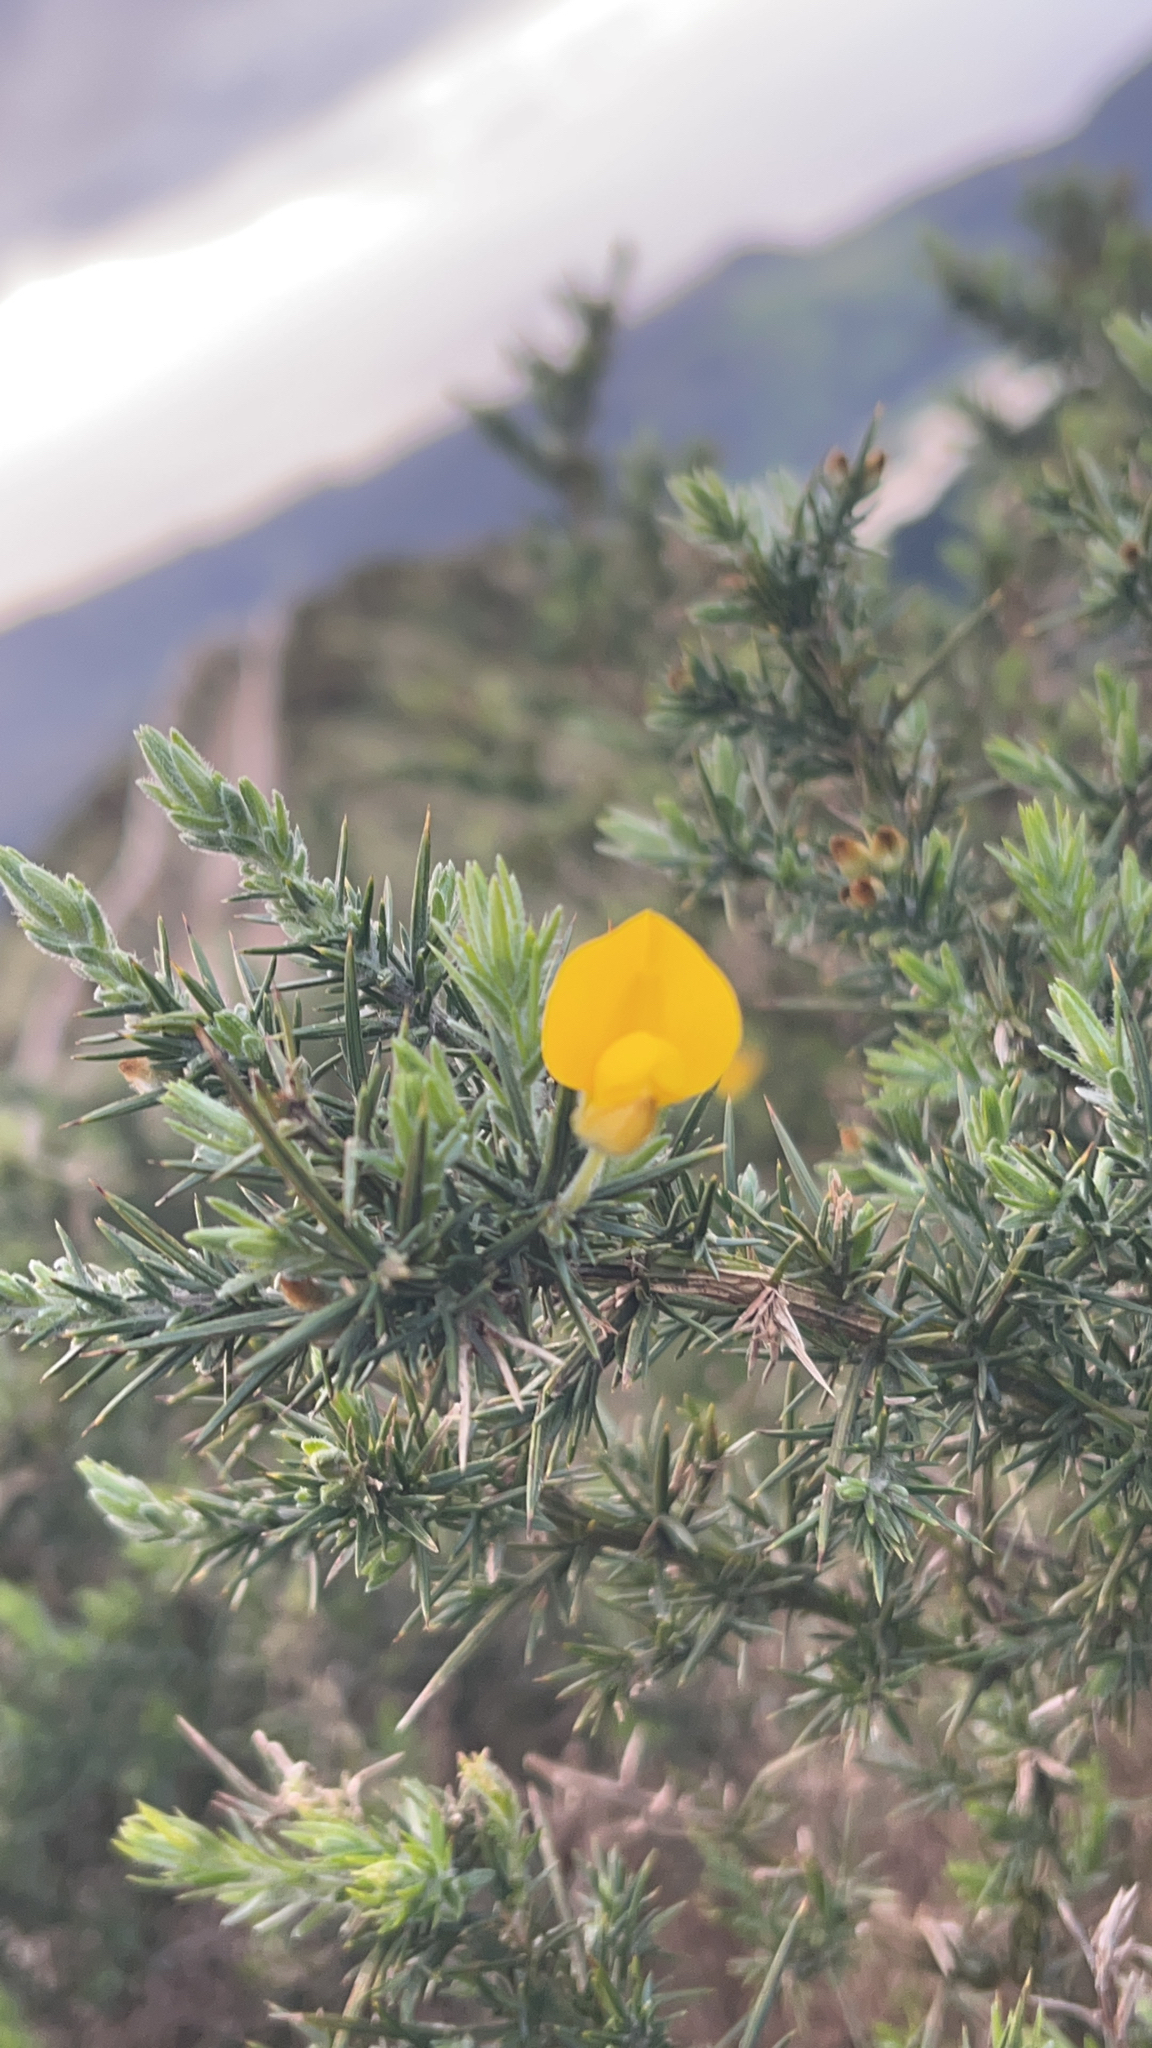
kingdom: Plantae
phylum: Tracheophyta
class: Magnoliopsida
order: Fabales
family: Fabaceae
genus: Ulex
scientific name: Ulex europaeus
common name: Common gorse
